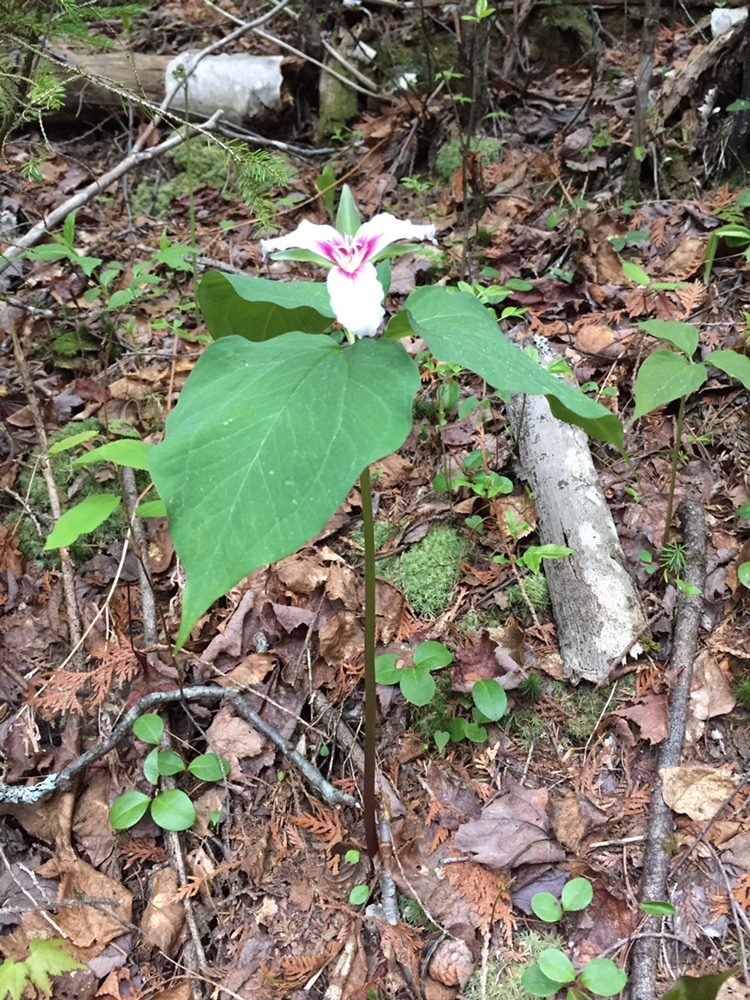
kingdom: Plantae
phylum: Tracheophyta
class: Liliopsida
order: Liliales
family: Melanthiaceae
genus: Trillium
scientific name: Trillium undulatum
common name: Paint trillium
